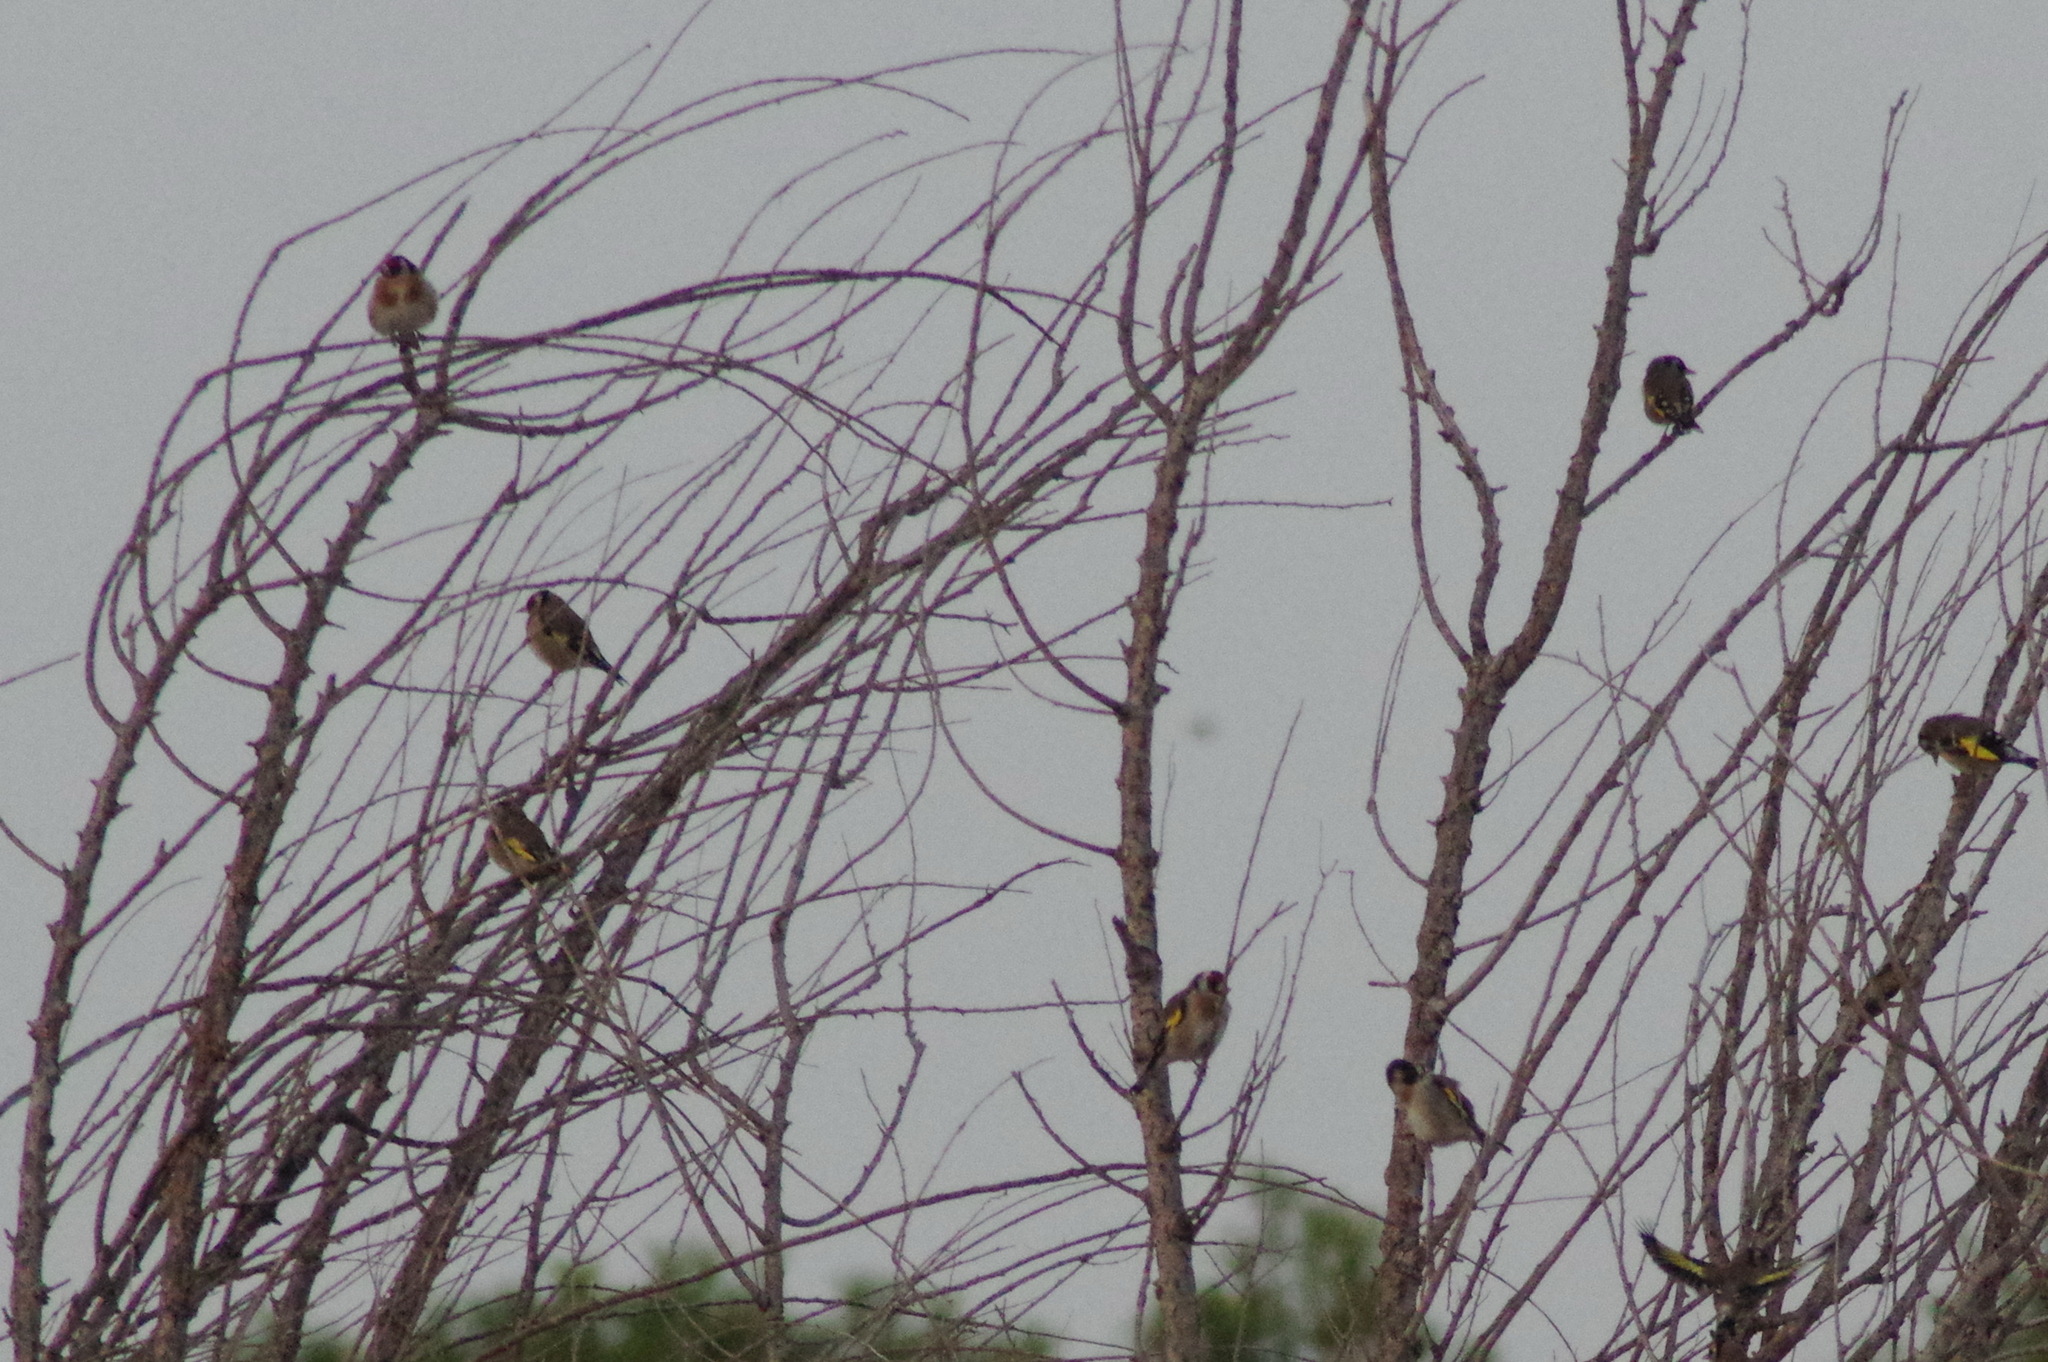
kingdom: Animalia
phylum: Chordata
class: Aves
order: Passeriformes
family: Fringillidae
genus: Carduelis
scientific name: Carduelis carduelis
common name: European goldfinch
